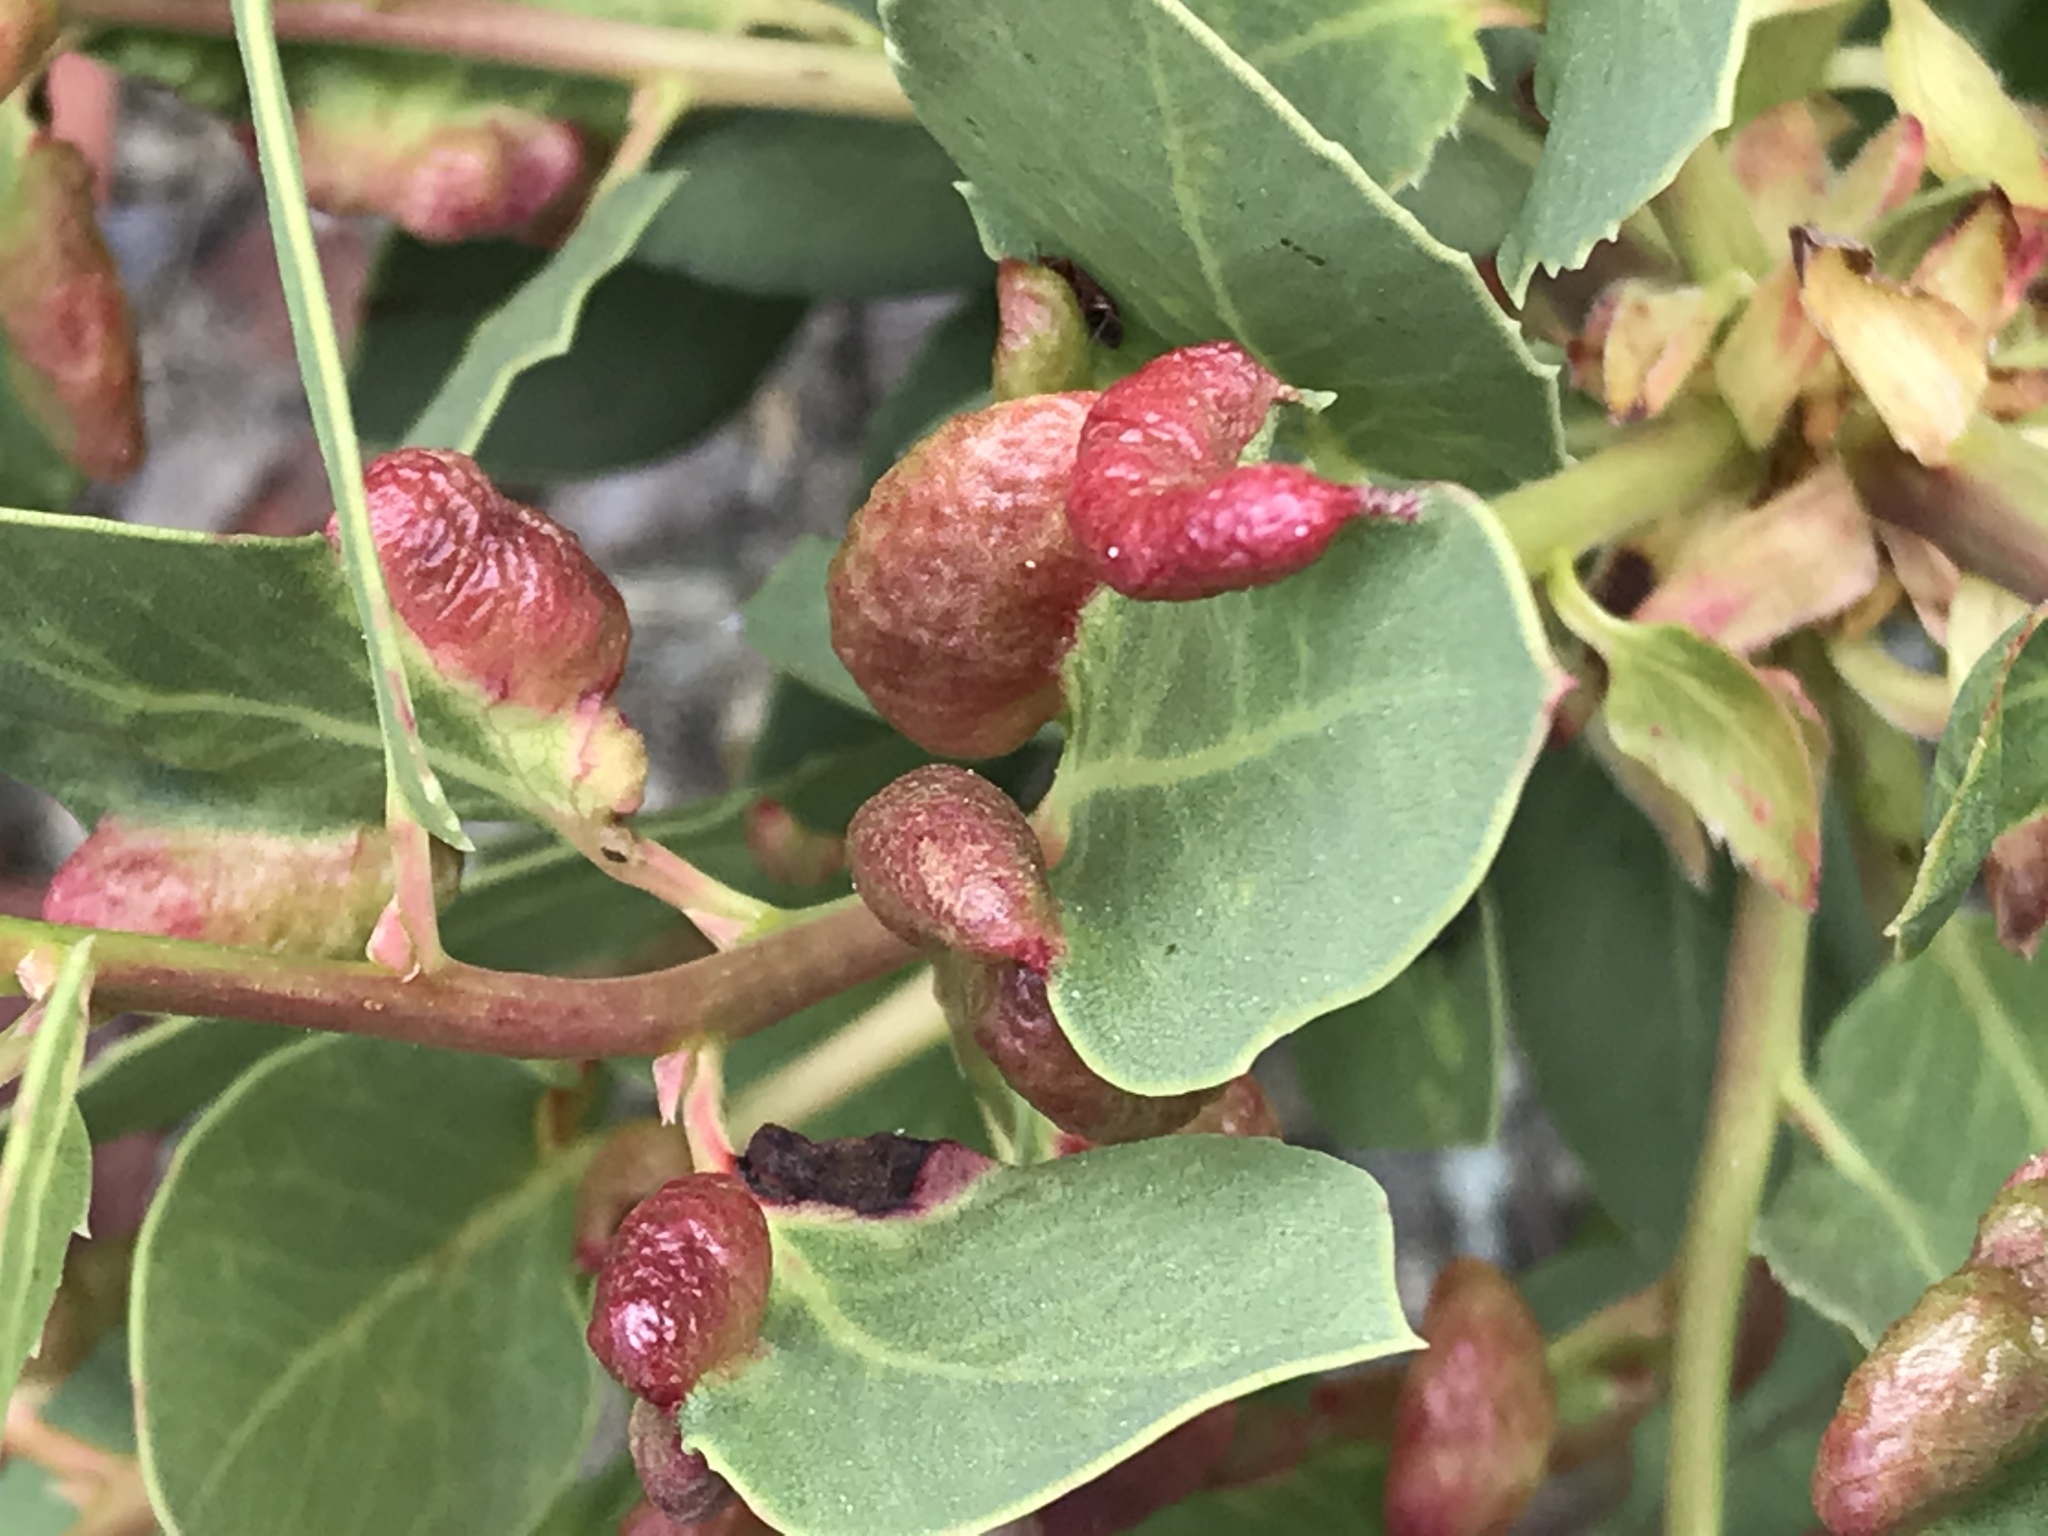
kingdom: Animalia
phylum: Arthropoda
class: Insecta
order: Hemiptera
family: Aphididae
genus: Tamalia
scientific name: Tamalia coweni
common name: Manzanita leafgall aphid
